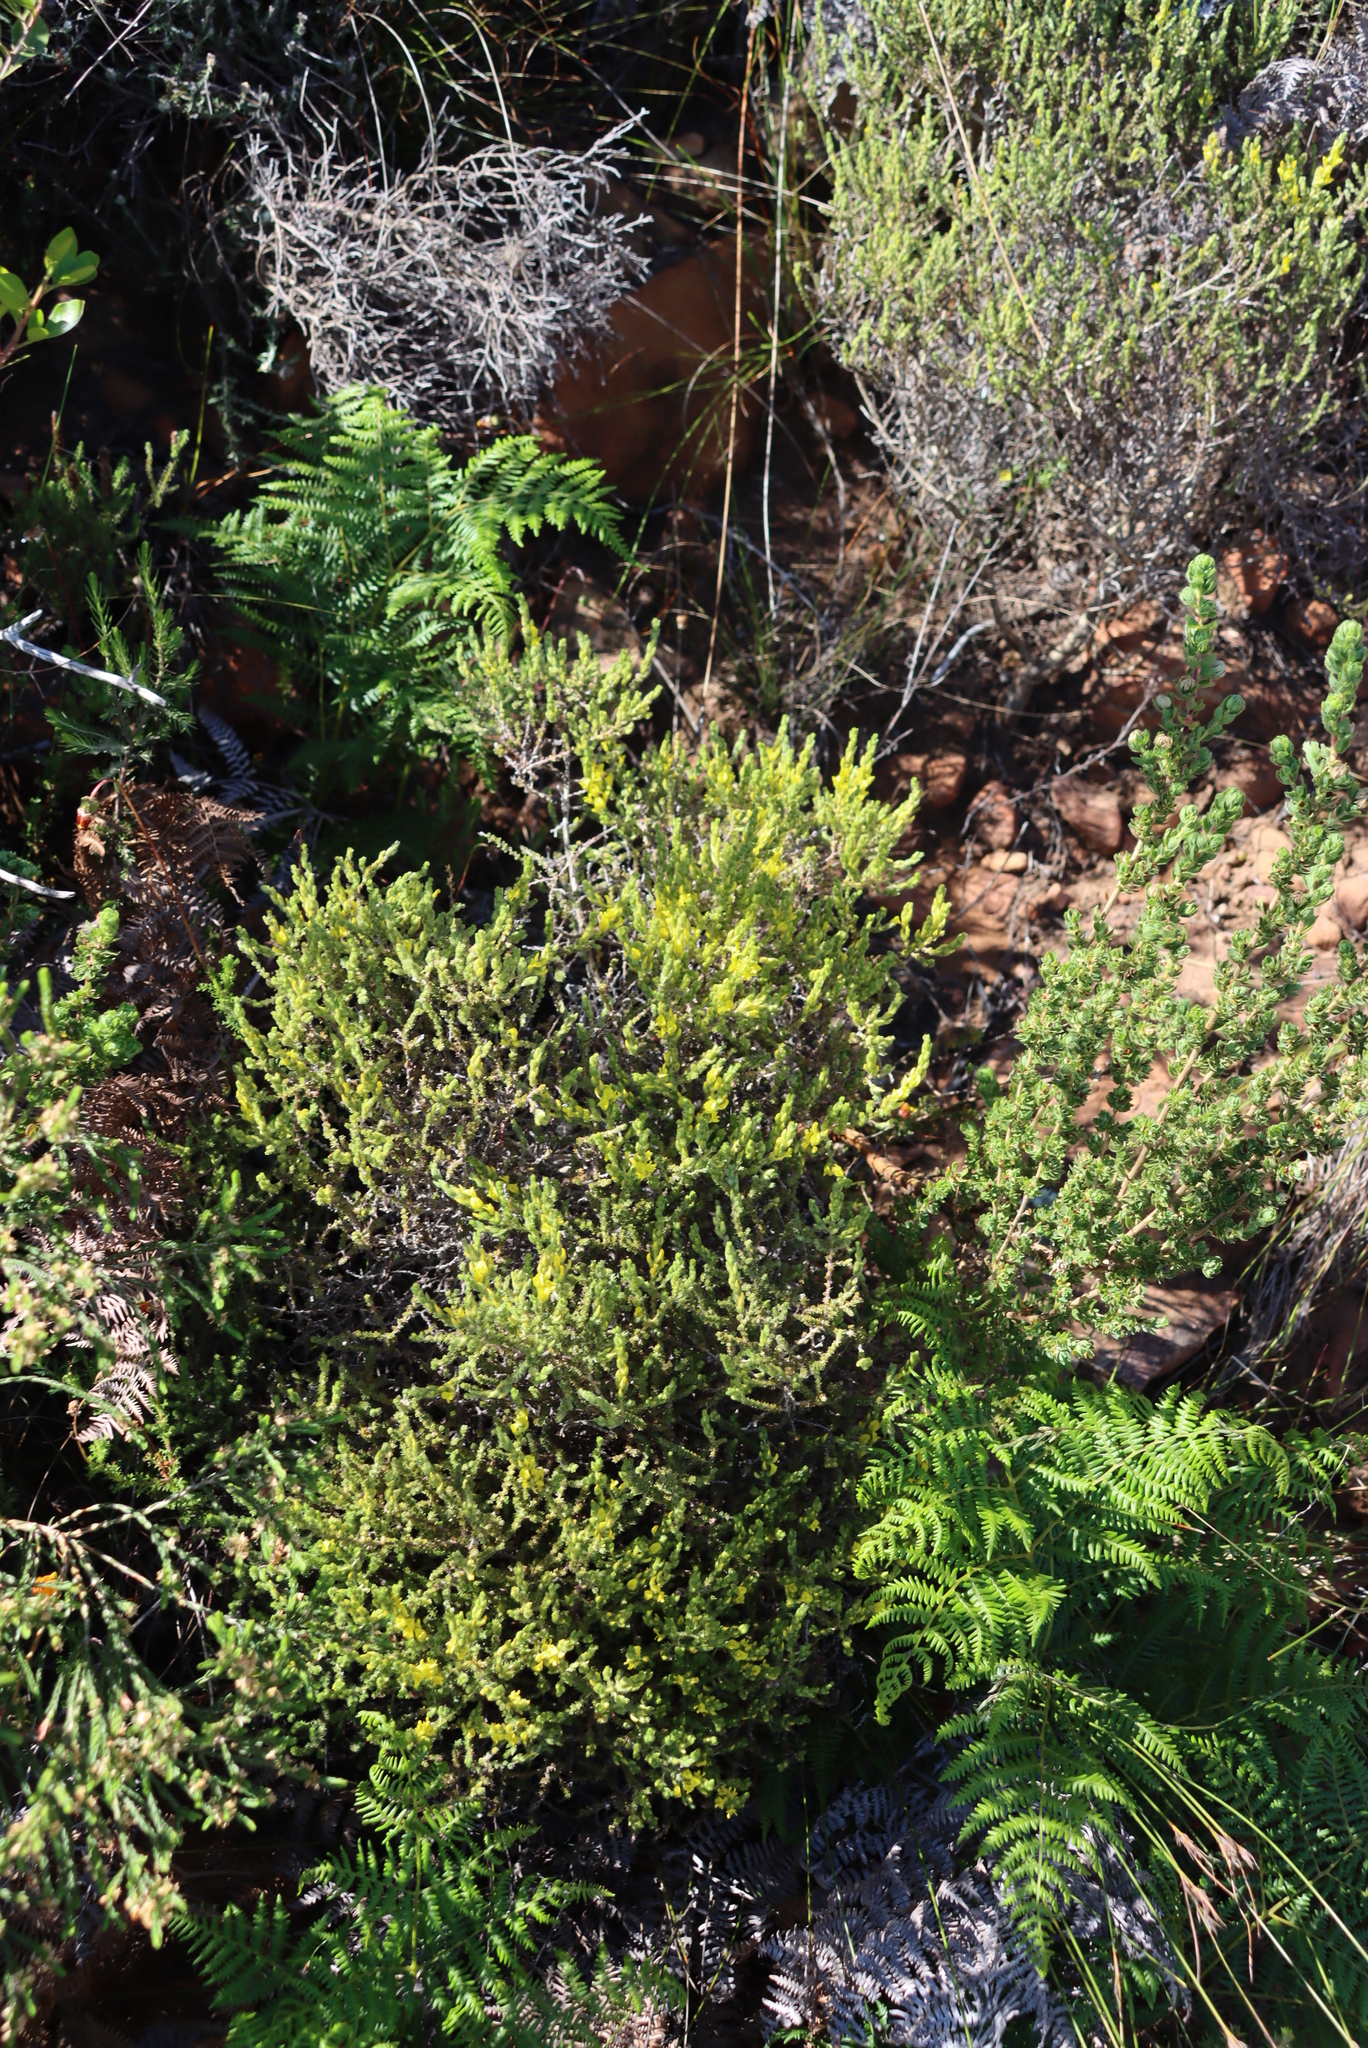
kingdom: Plantae
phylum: Tracheophyta
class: Magnoliopsida
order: Fabales
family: Fabaceae
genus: Aspalathus
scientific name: Aspalathus ericifolia
